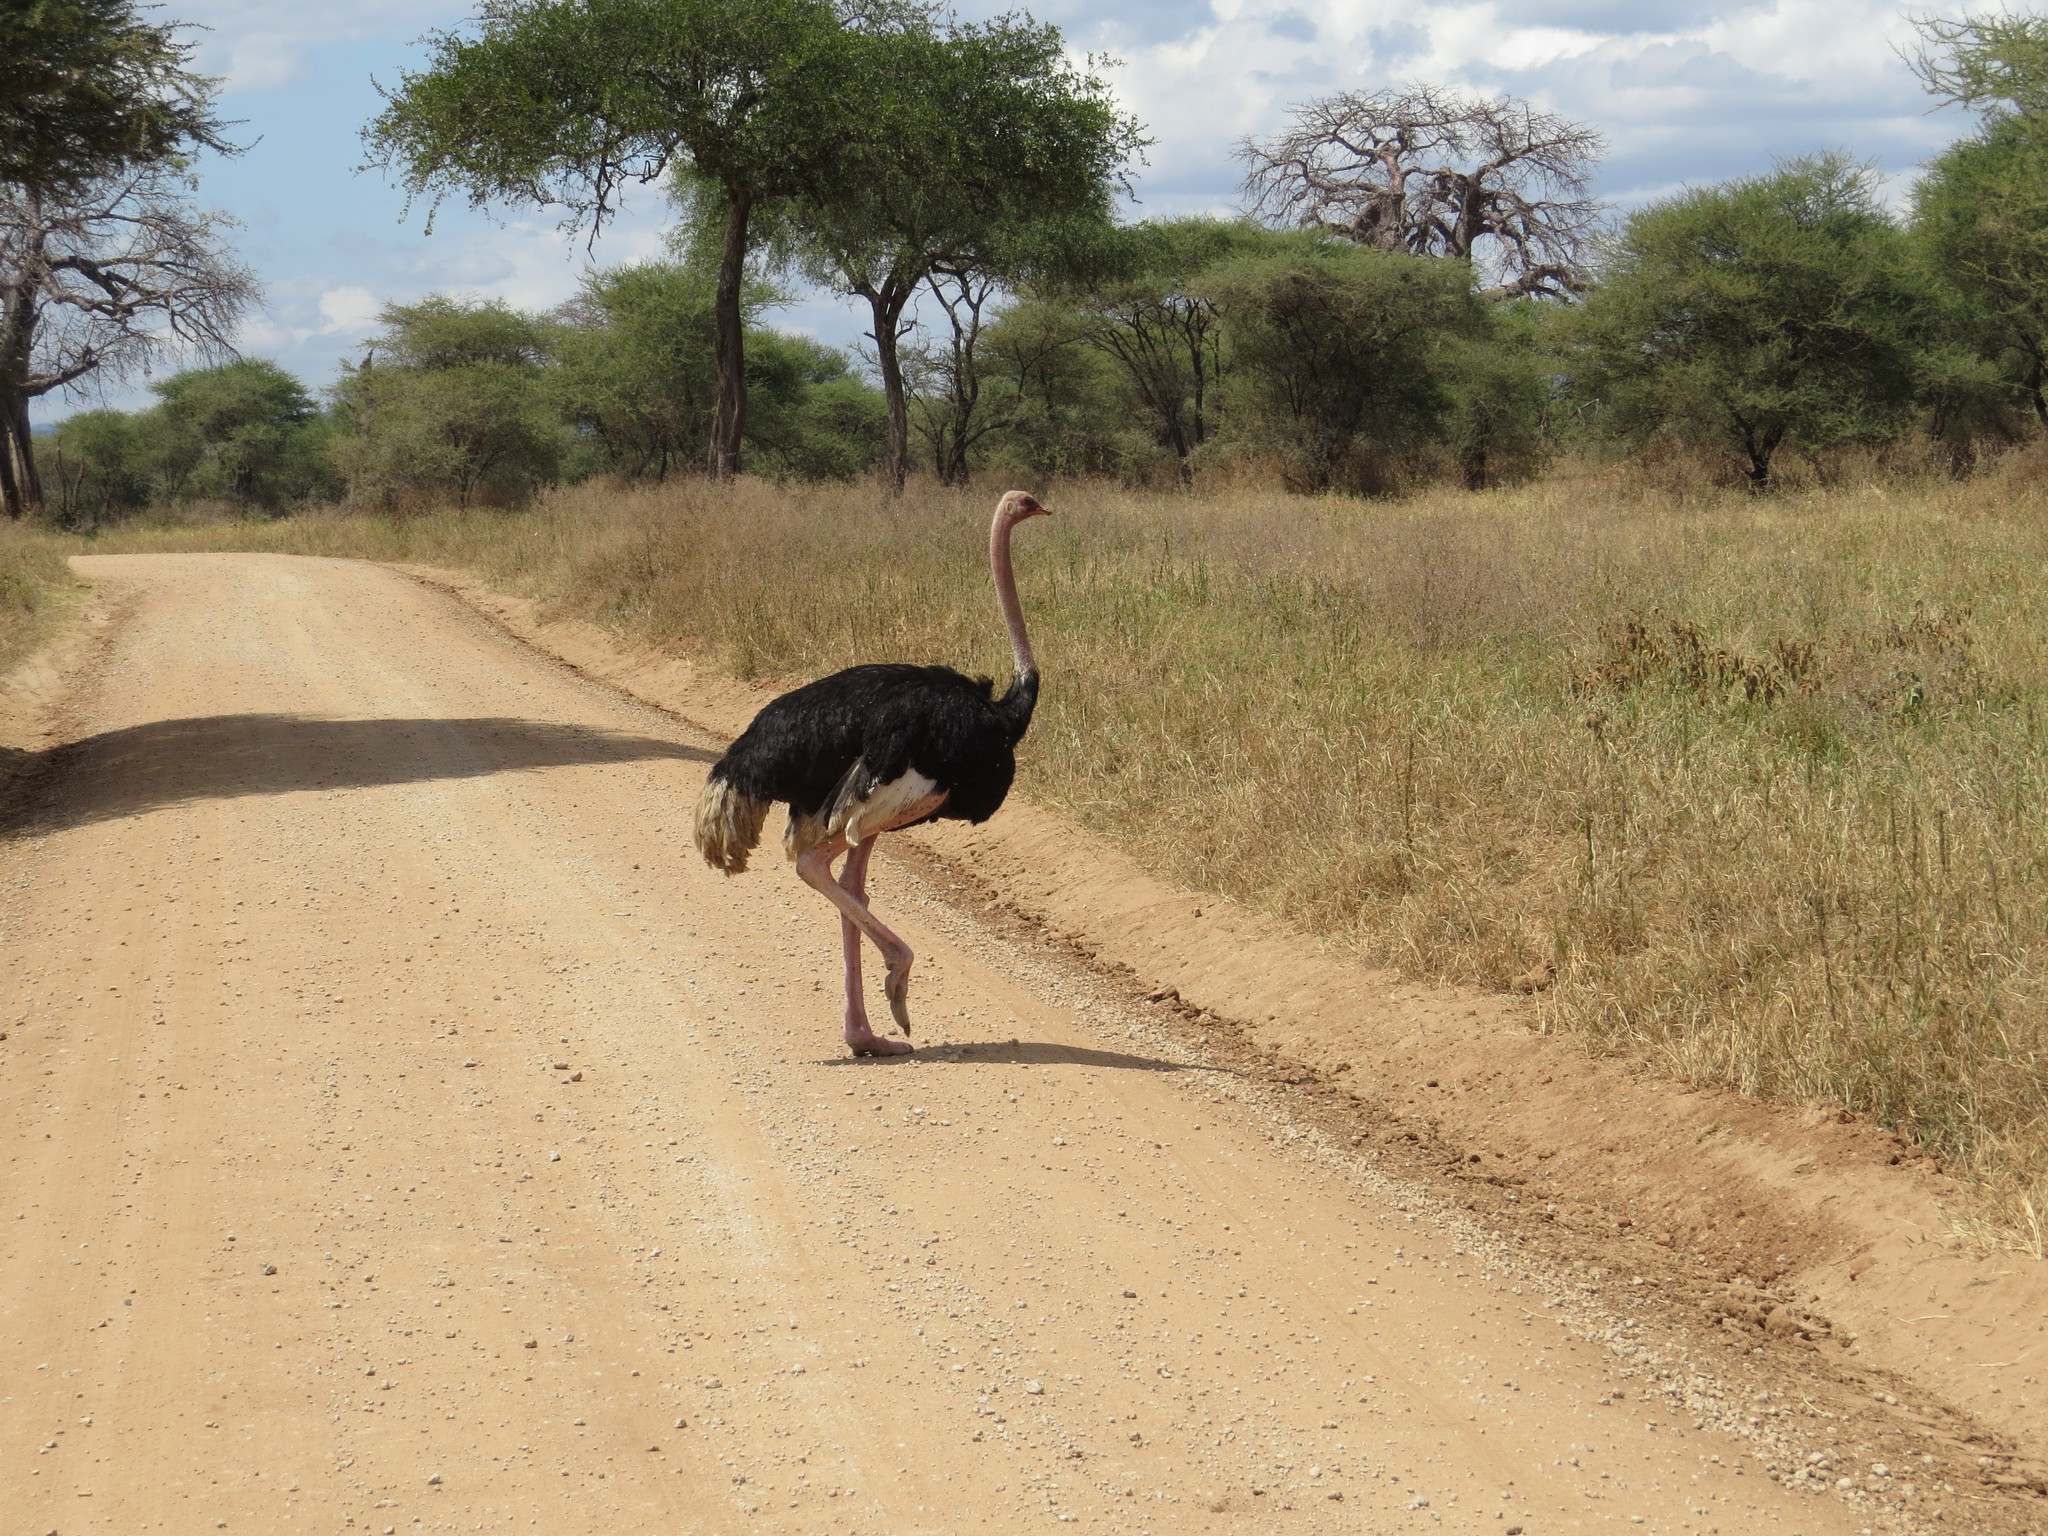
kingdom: Animalia
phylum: Chordata
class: Aves
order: Struthioniformes
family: Struthionidae
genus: Struthio
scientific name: Struthio camelus
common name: Common ostrich
